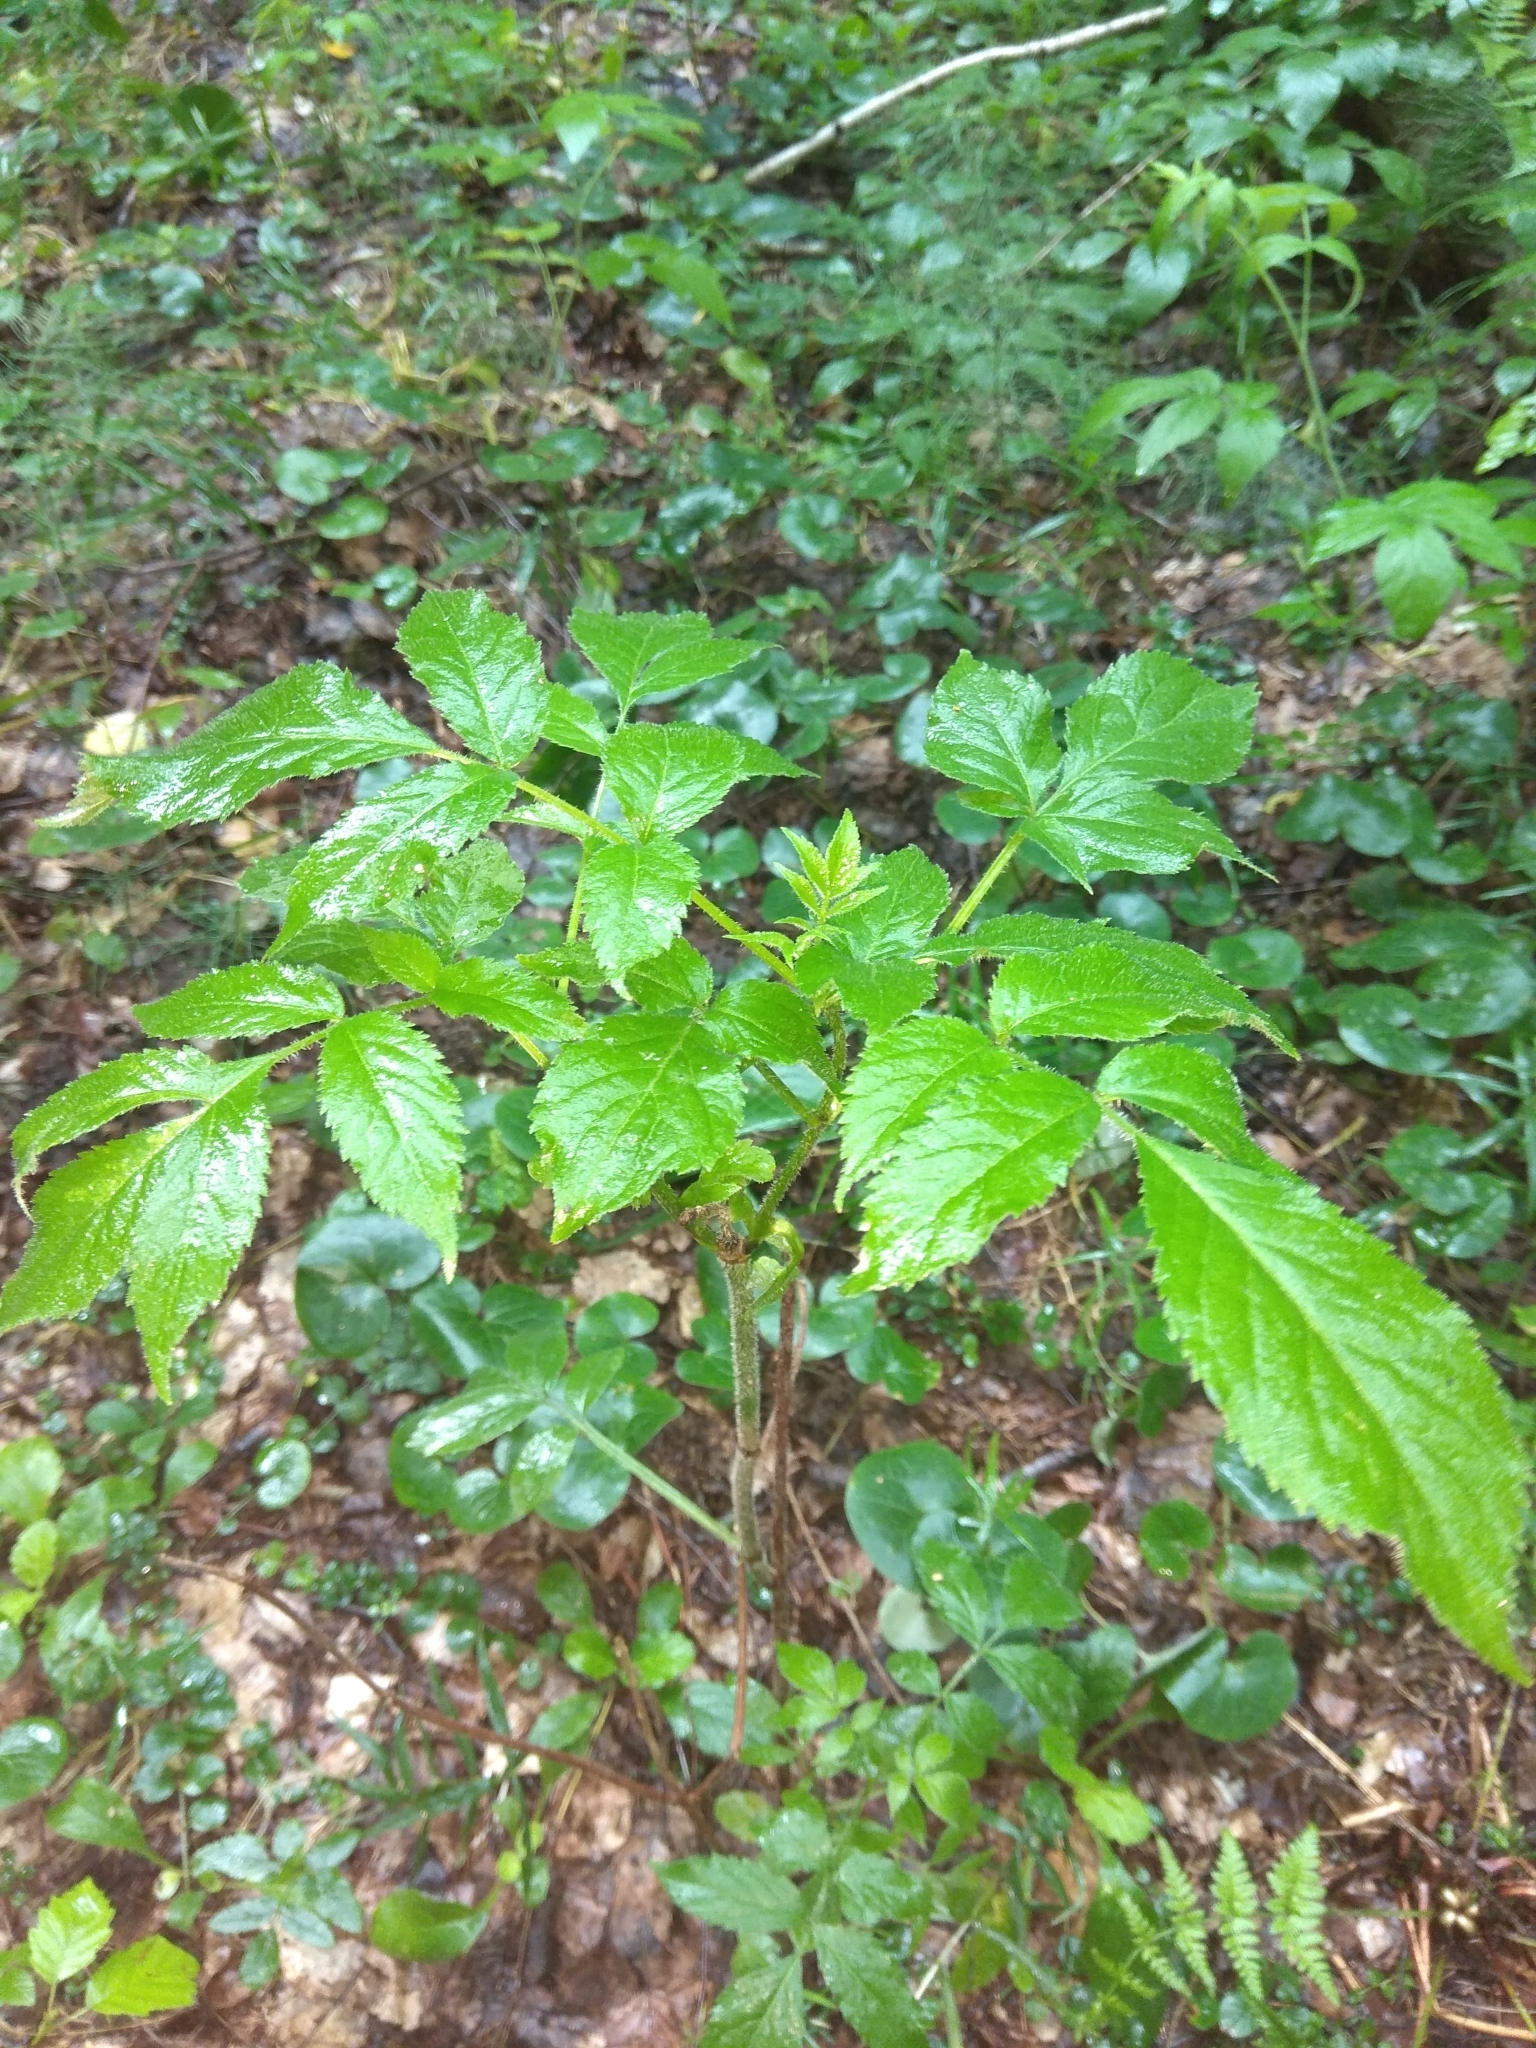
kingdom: Plantae
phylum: Tracheophyta
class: Magnoliopsida
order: Dipsacales
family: Viburnaceae
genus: Sambucus
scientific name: Sambucus racemosa
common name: Red-berried elder
